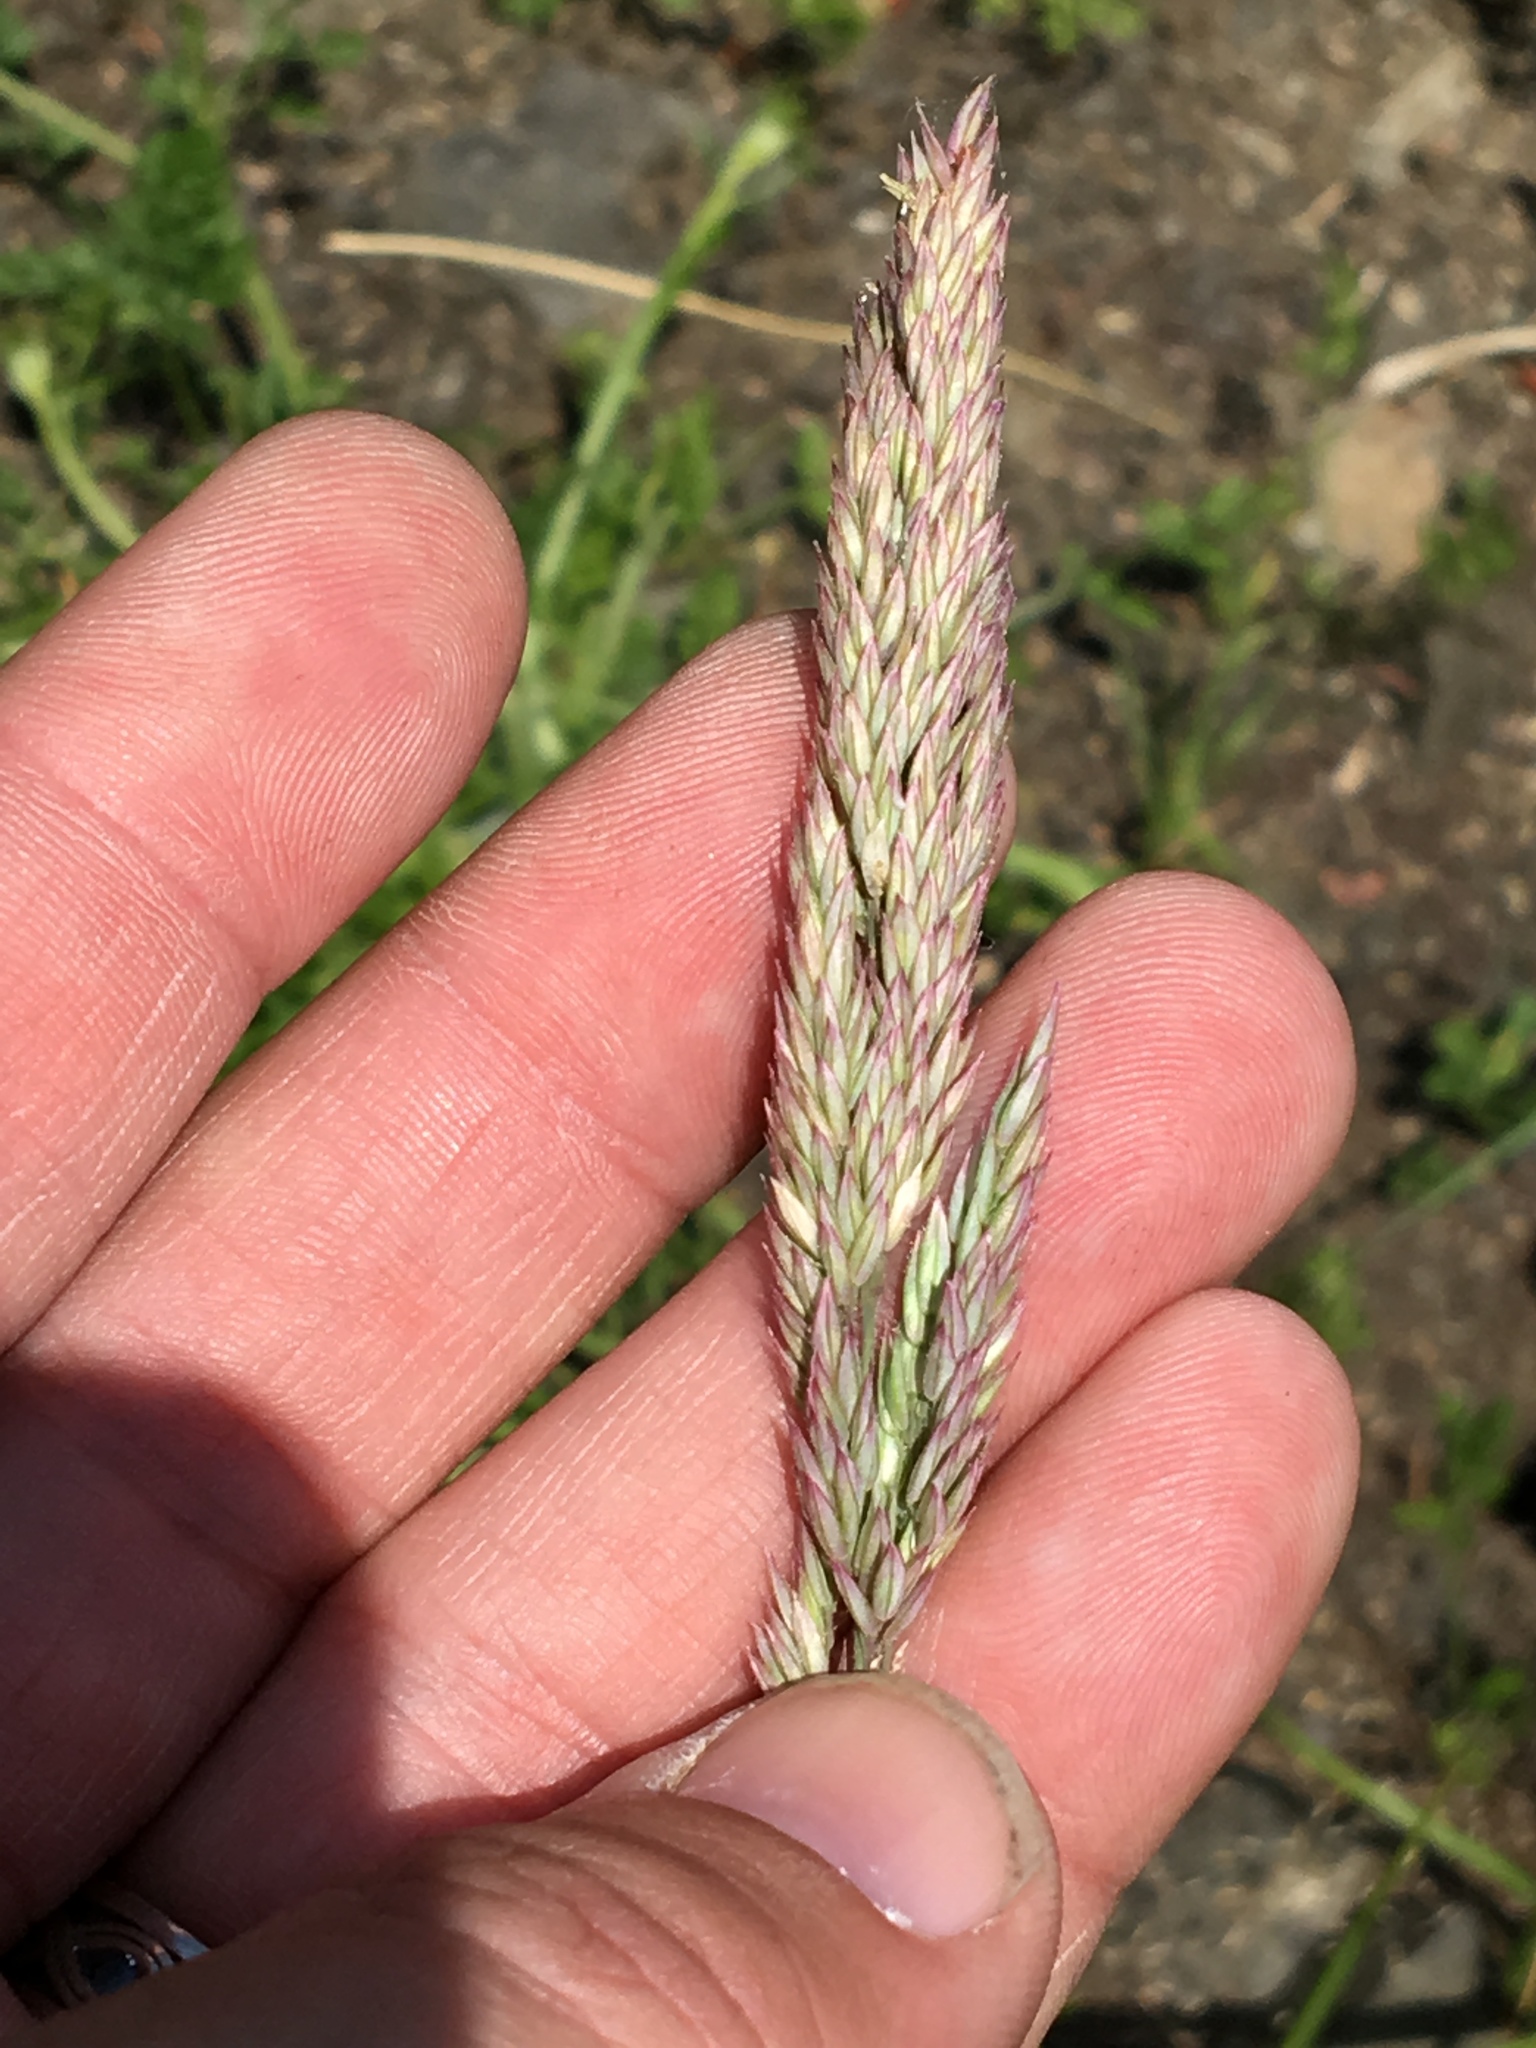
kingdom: Plantae
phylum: Tracheophyta
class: Liliopsida
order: Poales
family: Poaceae
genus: Holcus
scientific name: Holcus lanatus
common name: Yorkshire-fog
